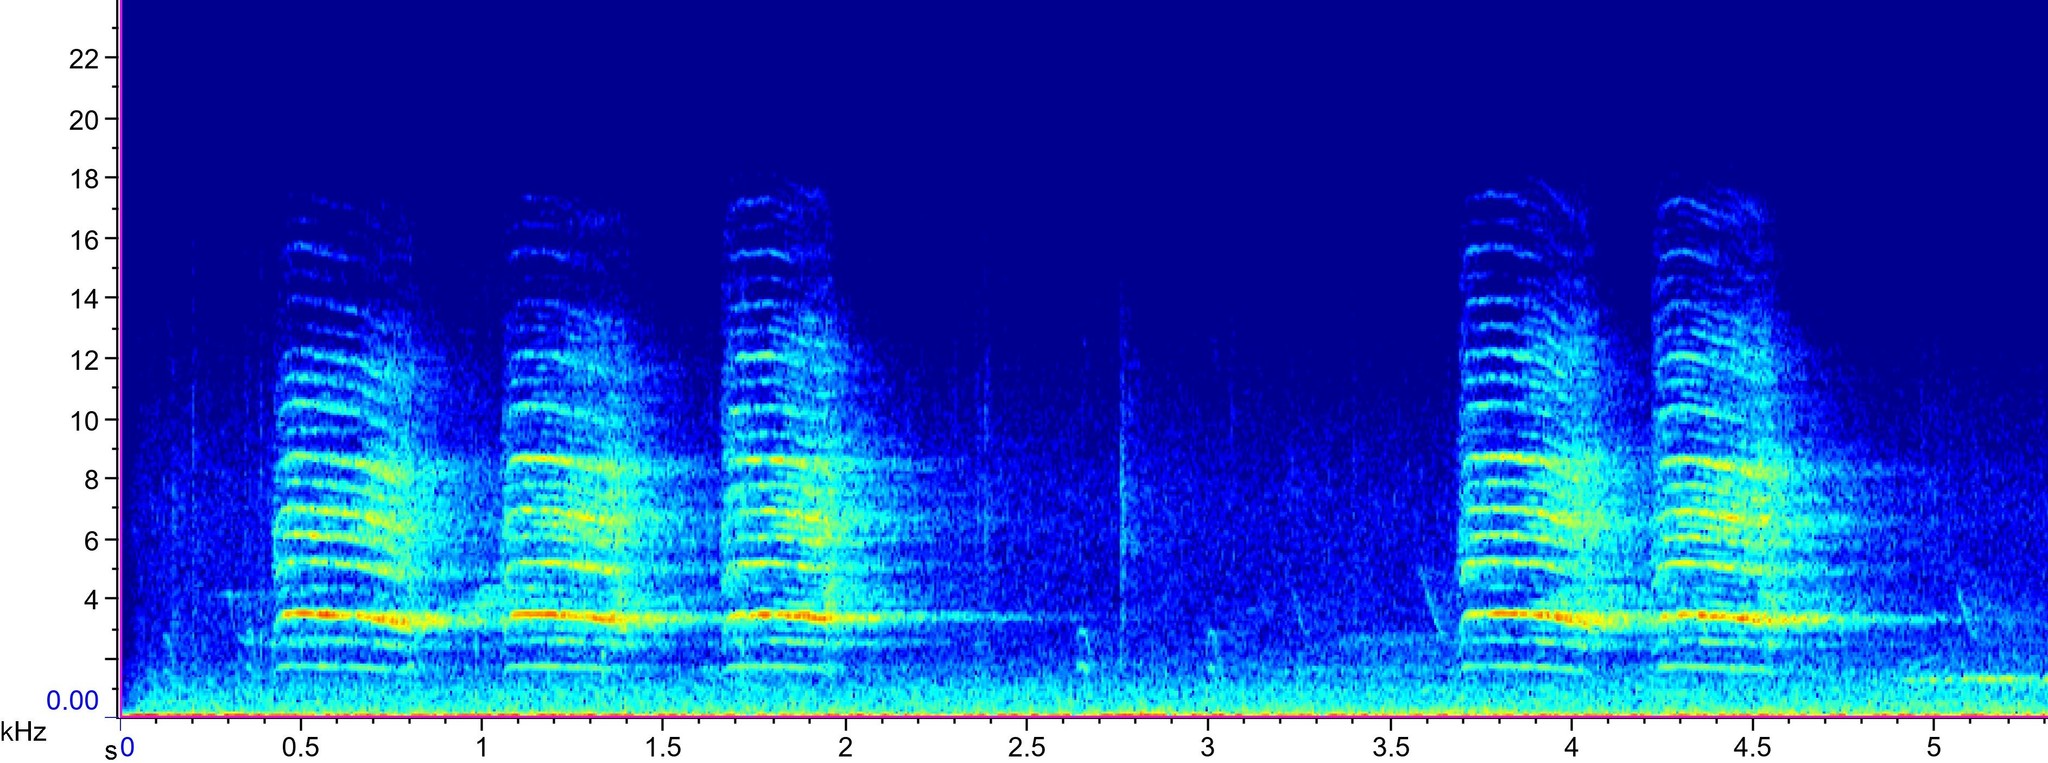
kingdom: Animalia
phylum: Chordata
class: Aves
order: Passeriformes
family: Corvidae
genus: Cyanocitta
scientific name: Cyanocitta cristata
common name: Blue jay
